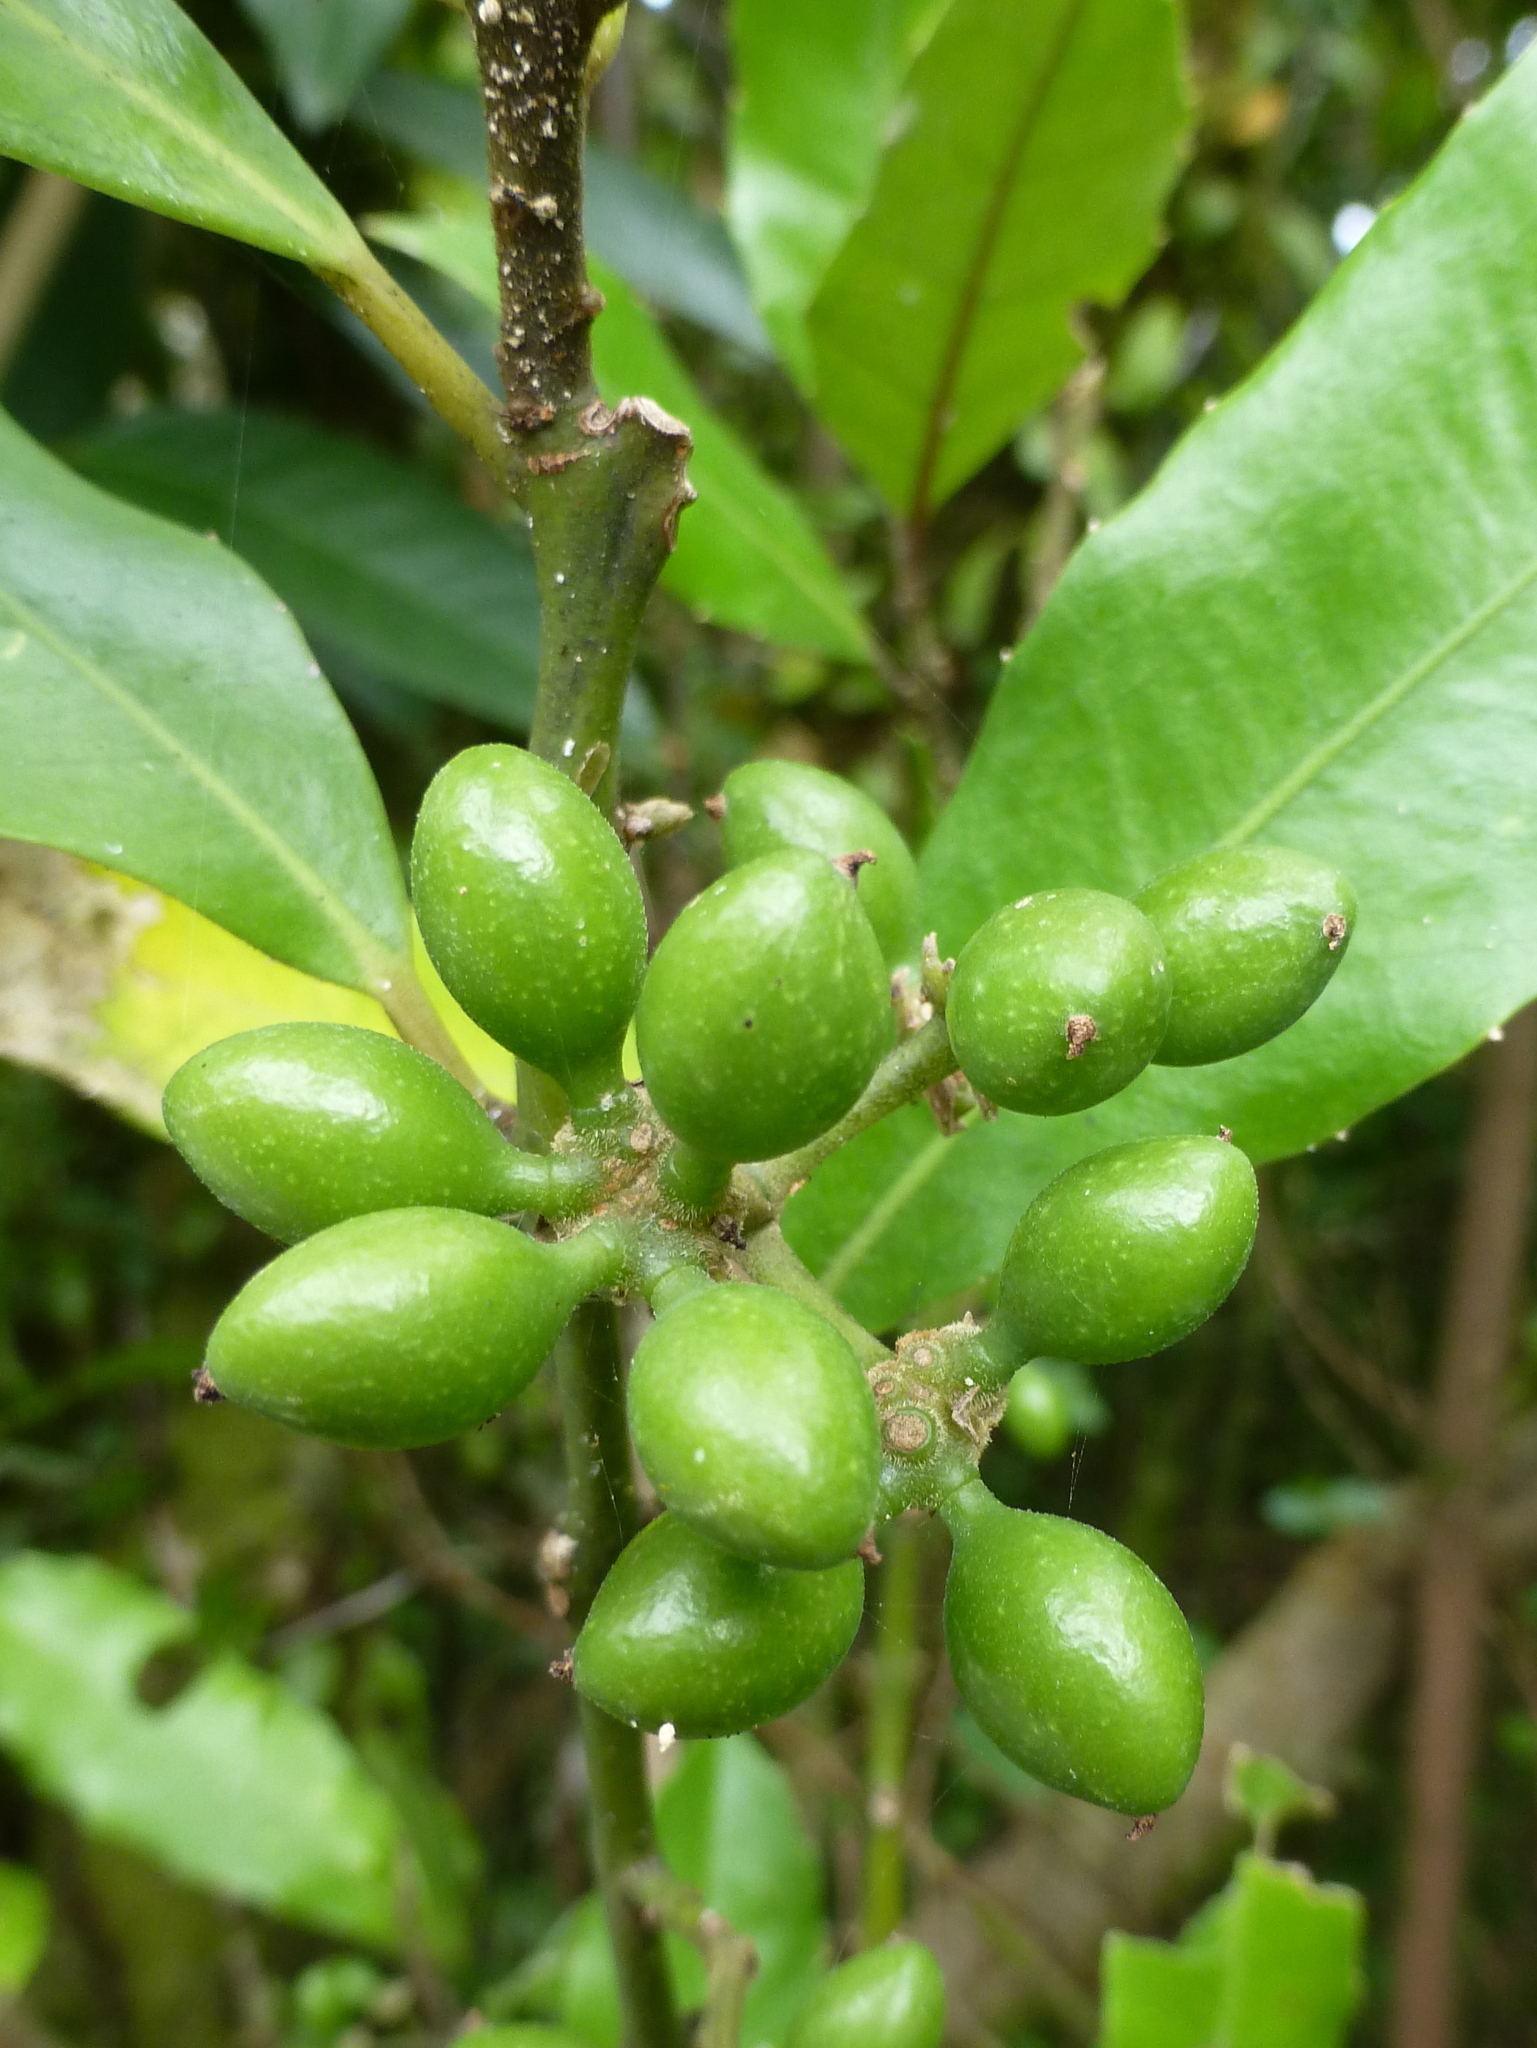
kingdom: Plantae
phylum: Tracheophyta
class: Magnoliopsida
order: Laurales
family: Monimiaceae
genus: Hedycarya
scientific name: Hedycarya arborea
